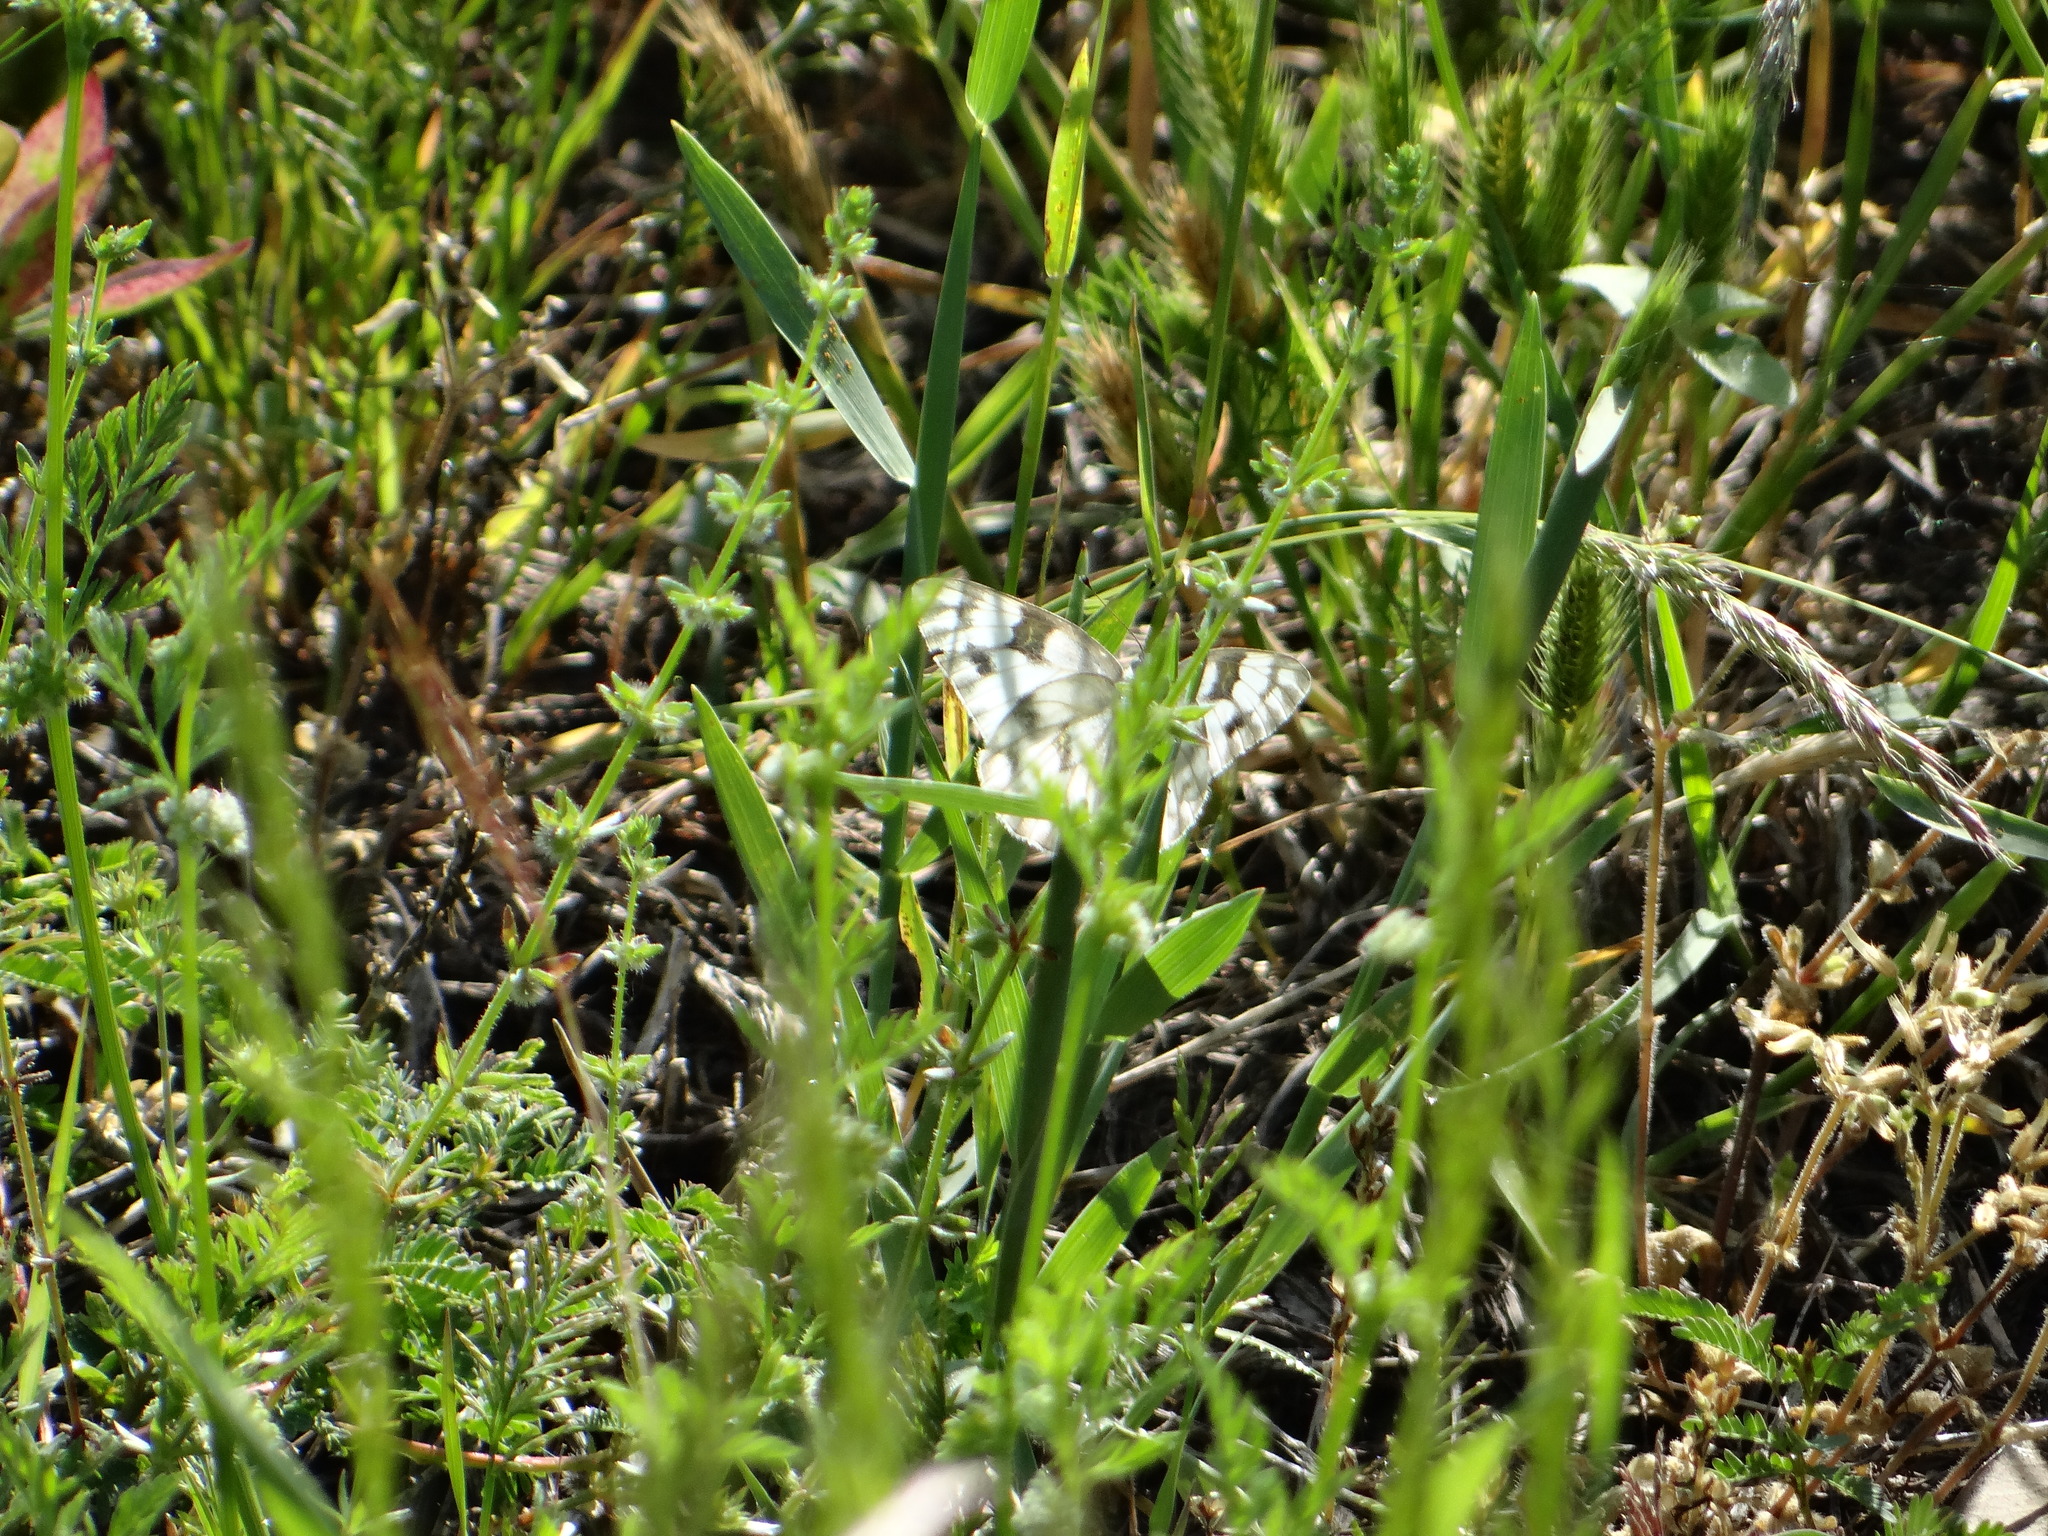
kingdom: Animalia
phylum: Arthropoda
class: Insecta
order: Lepidoptera
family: Pieridae
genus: Pontia
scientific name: Pontia protodice
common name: Checkered white
